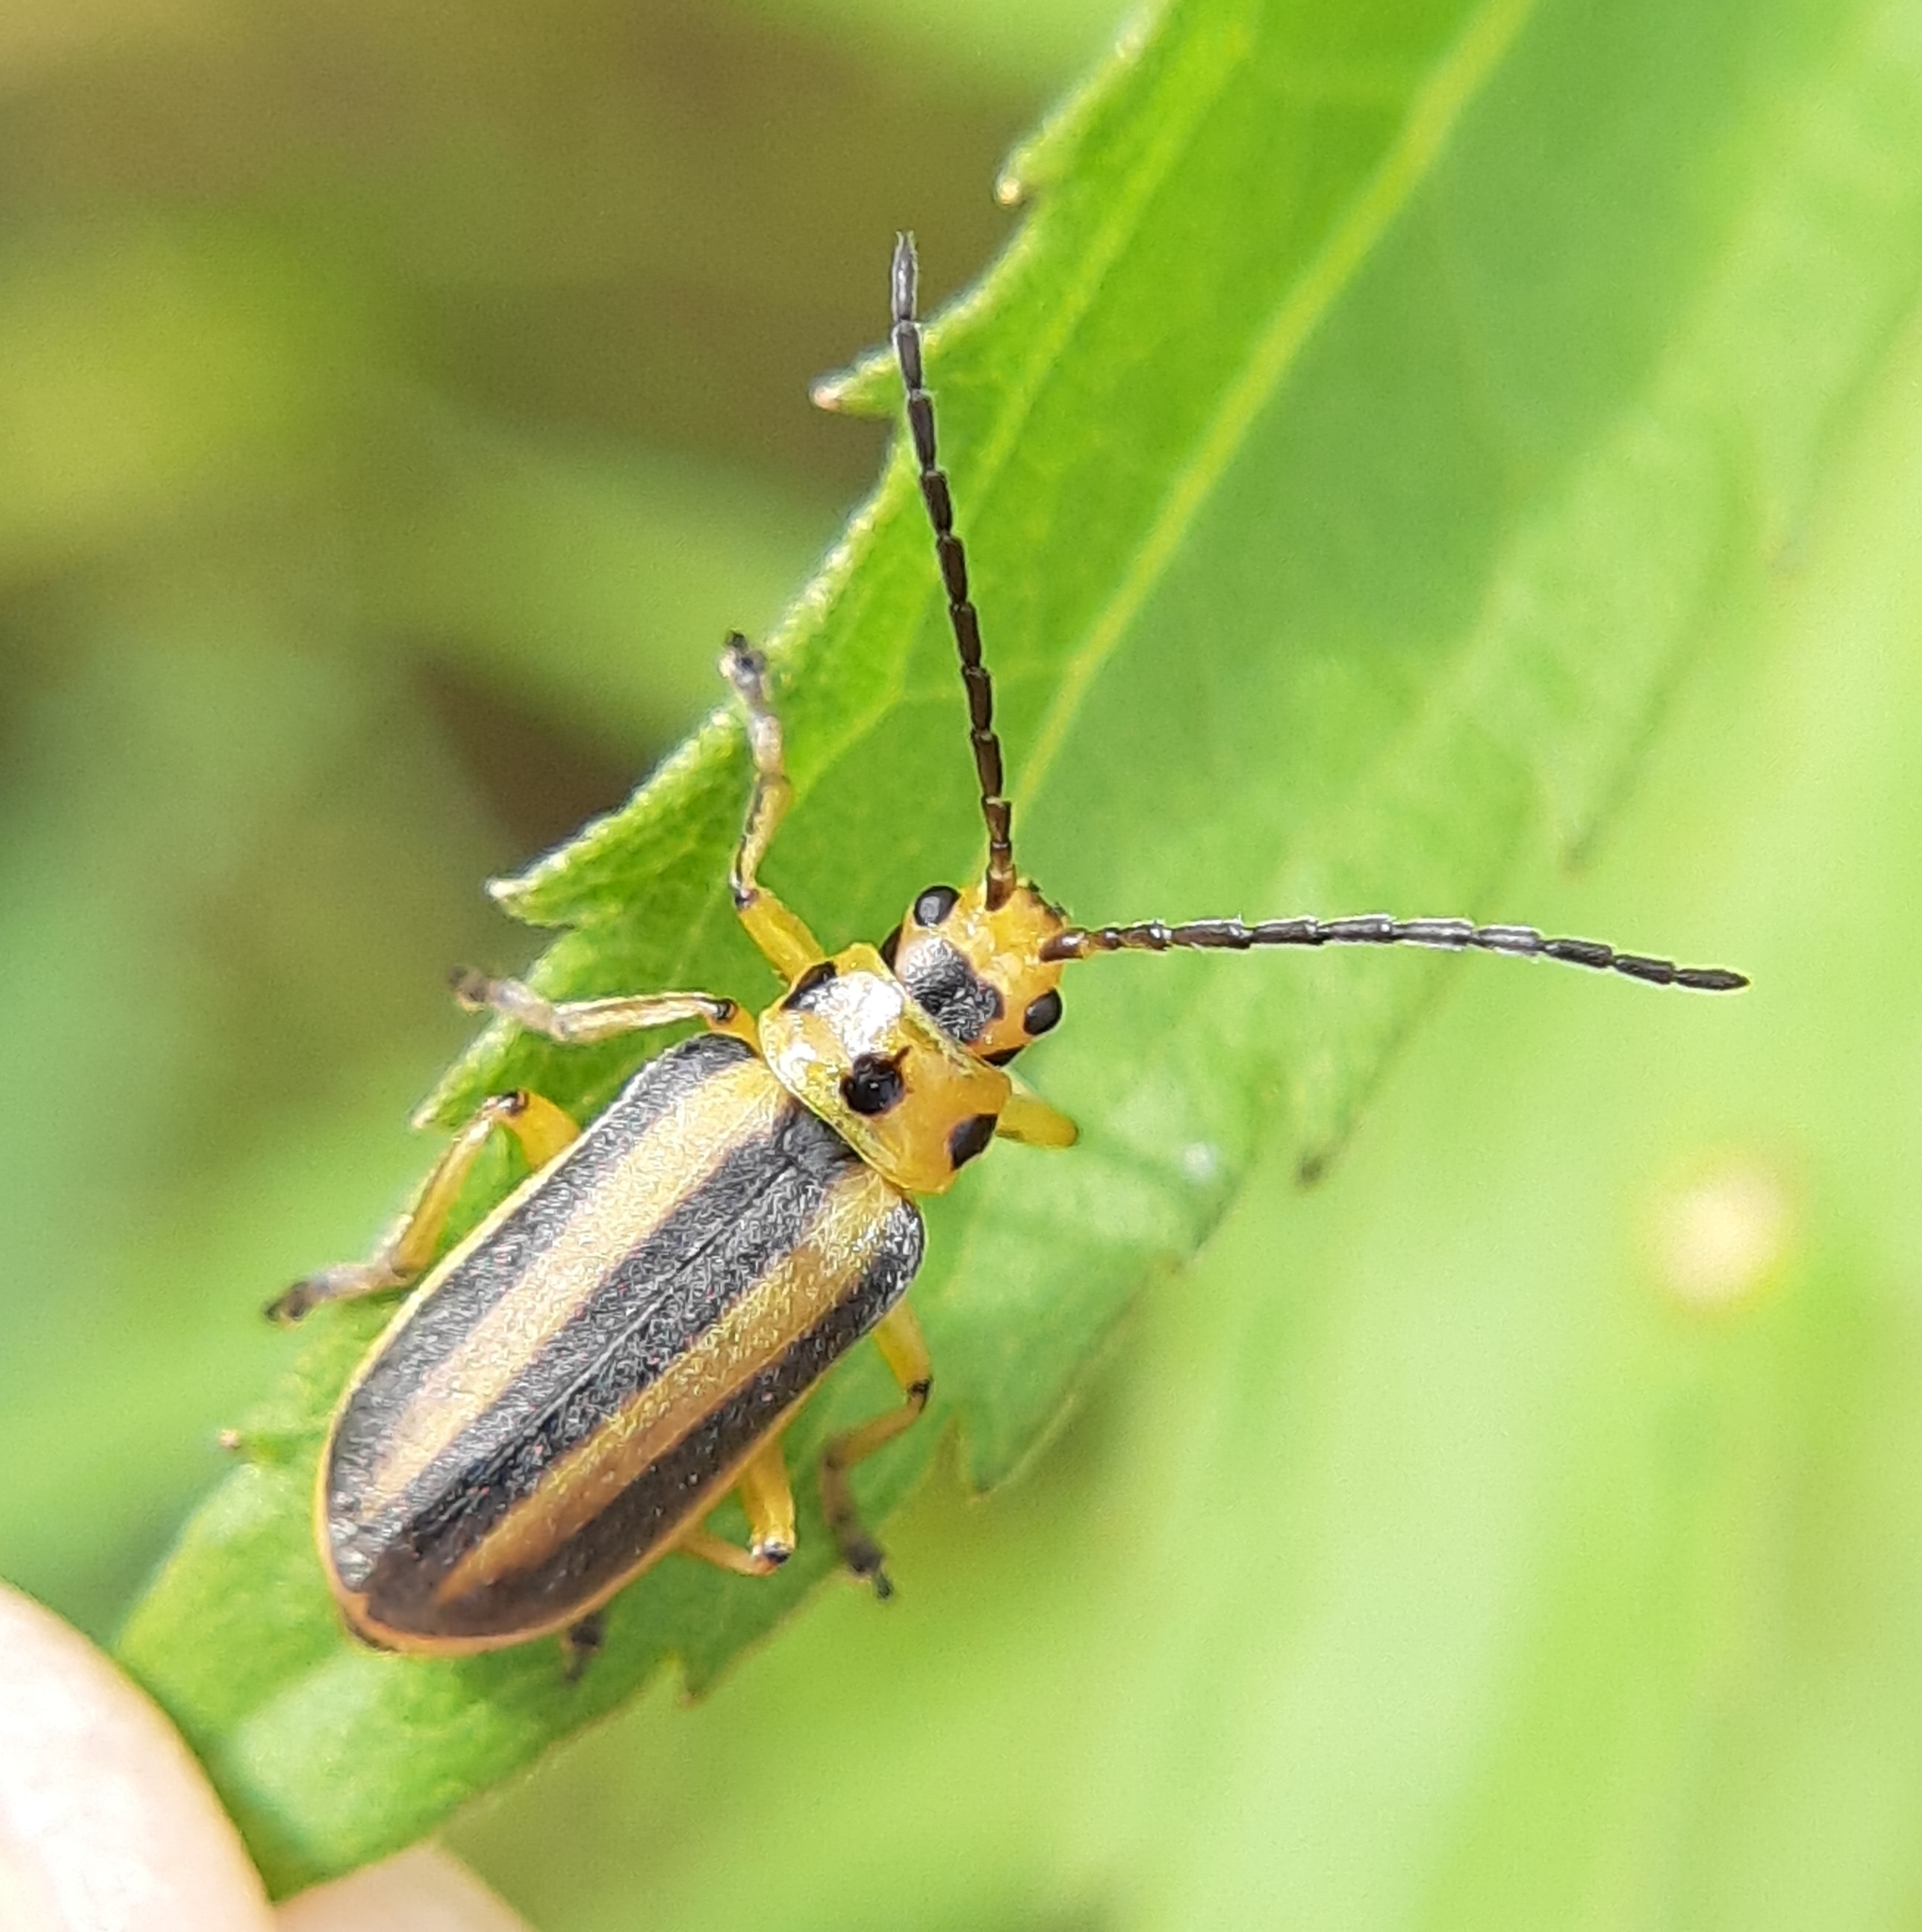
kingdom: Animalia
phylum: Arthropoda
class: Insecta
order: Coleoptera
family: Chrysomelidae
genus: Trirhabda
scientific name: Trirhabda canadensis
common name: Goldenrod leaf beetle
